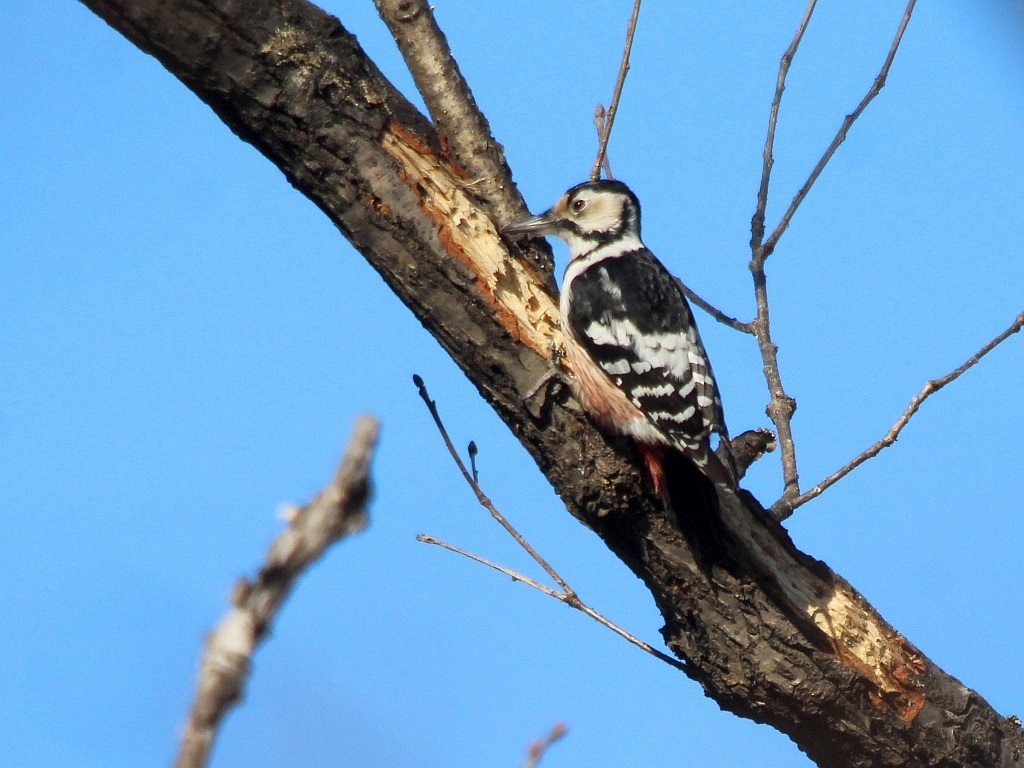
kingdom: Animalia
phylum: Chordata
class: Aves
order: Piciformes
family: Picidae
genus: Dendrocopos
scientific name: Dendrocopos leucotos
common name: White-backed woodpecker
